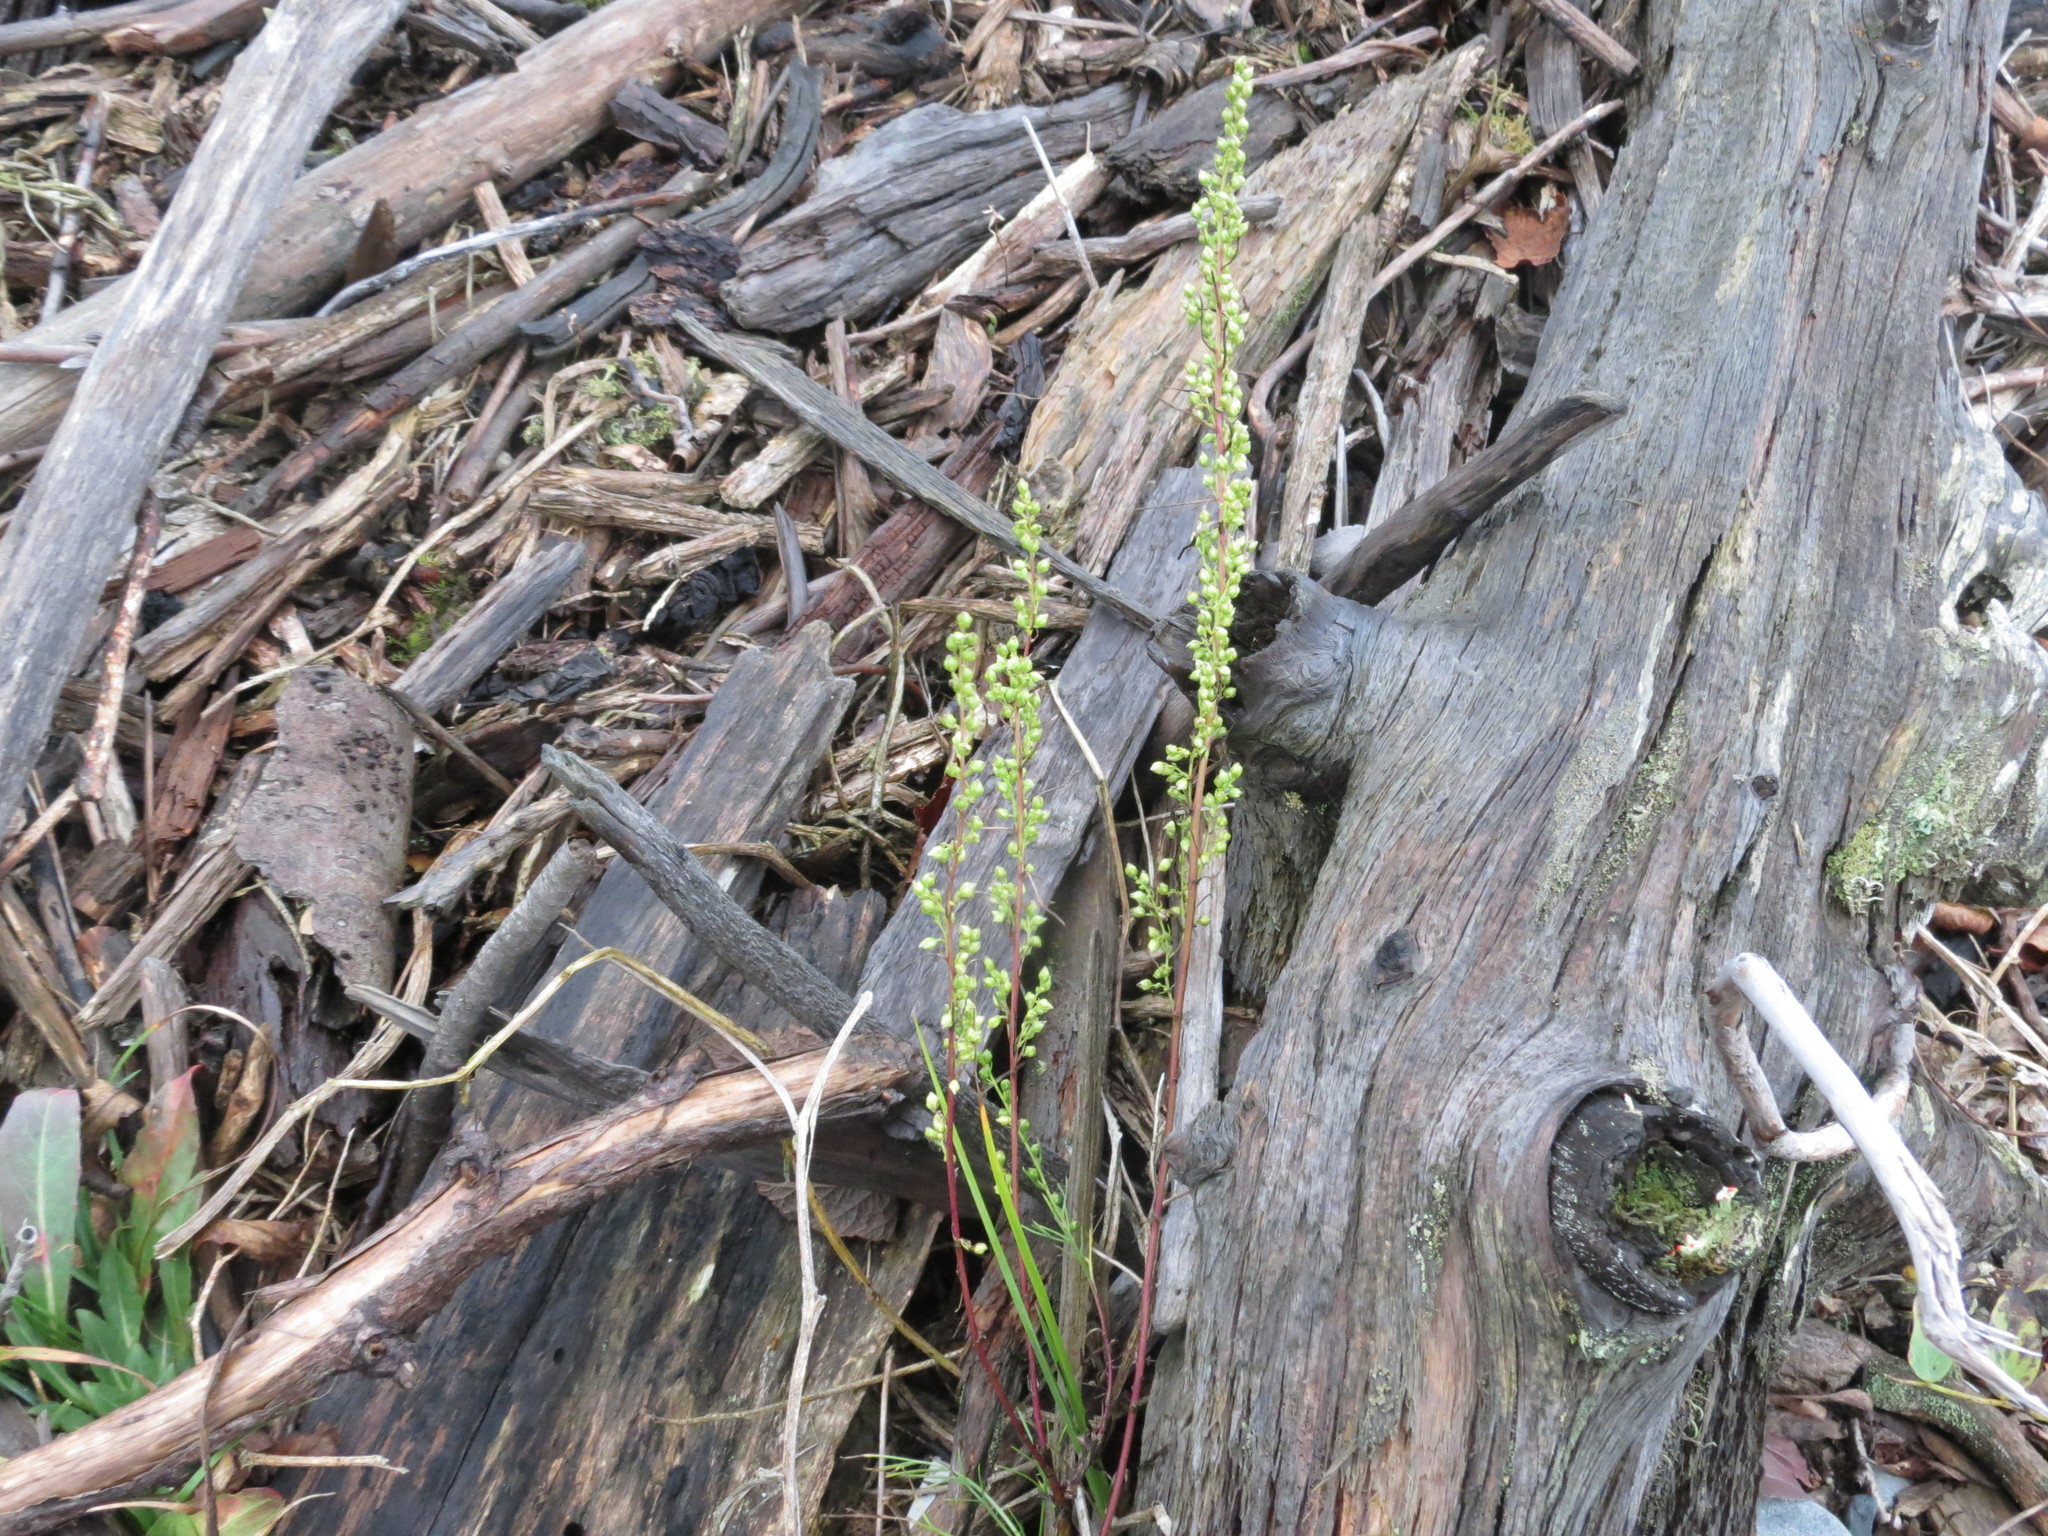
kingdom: Plantae
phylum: Tracheophyta
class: Magnoliopsida
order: Asterales
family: Asteraceae
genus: Artemisia
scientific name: Artemisia campestris
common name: Field wormwood
